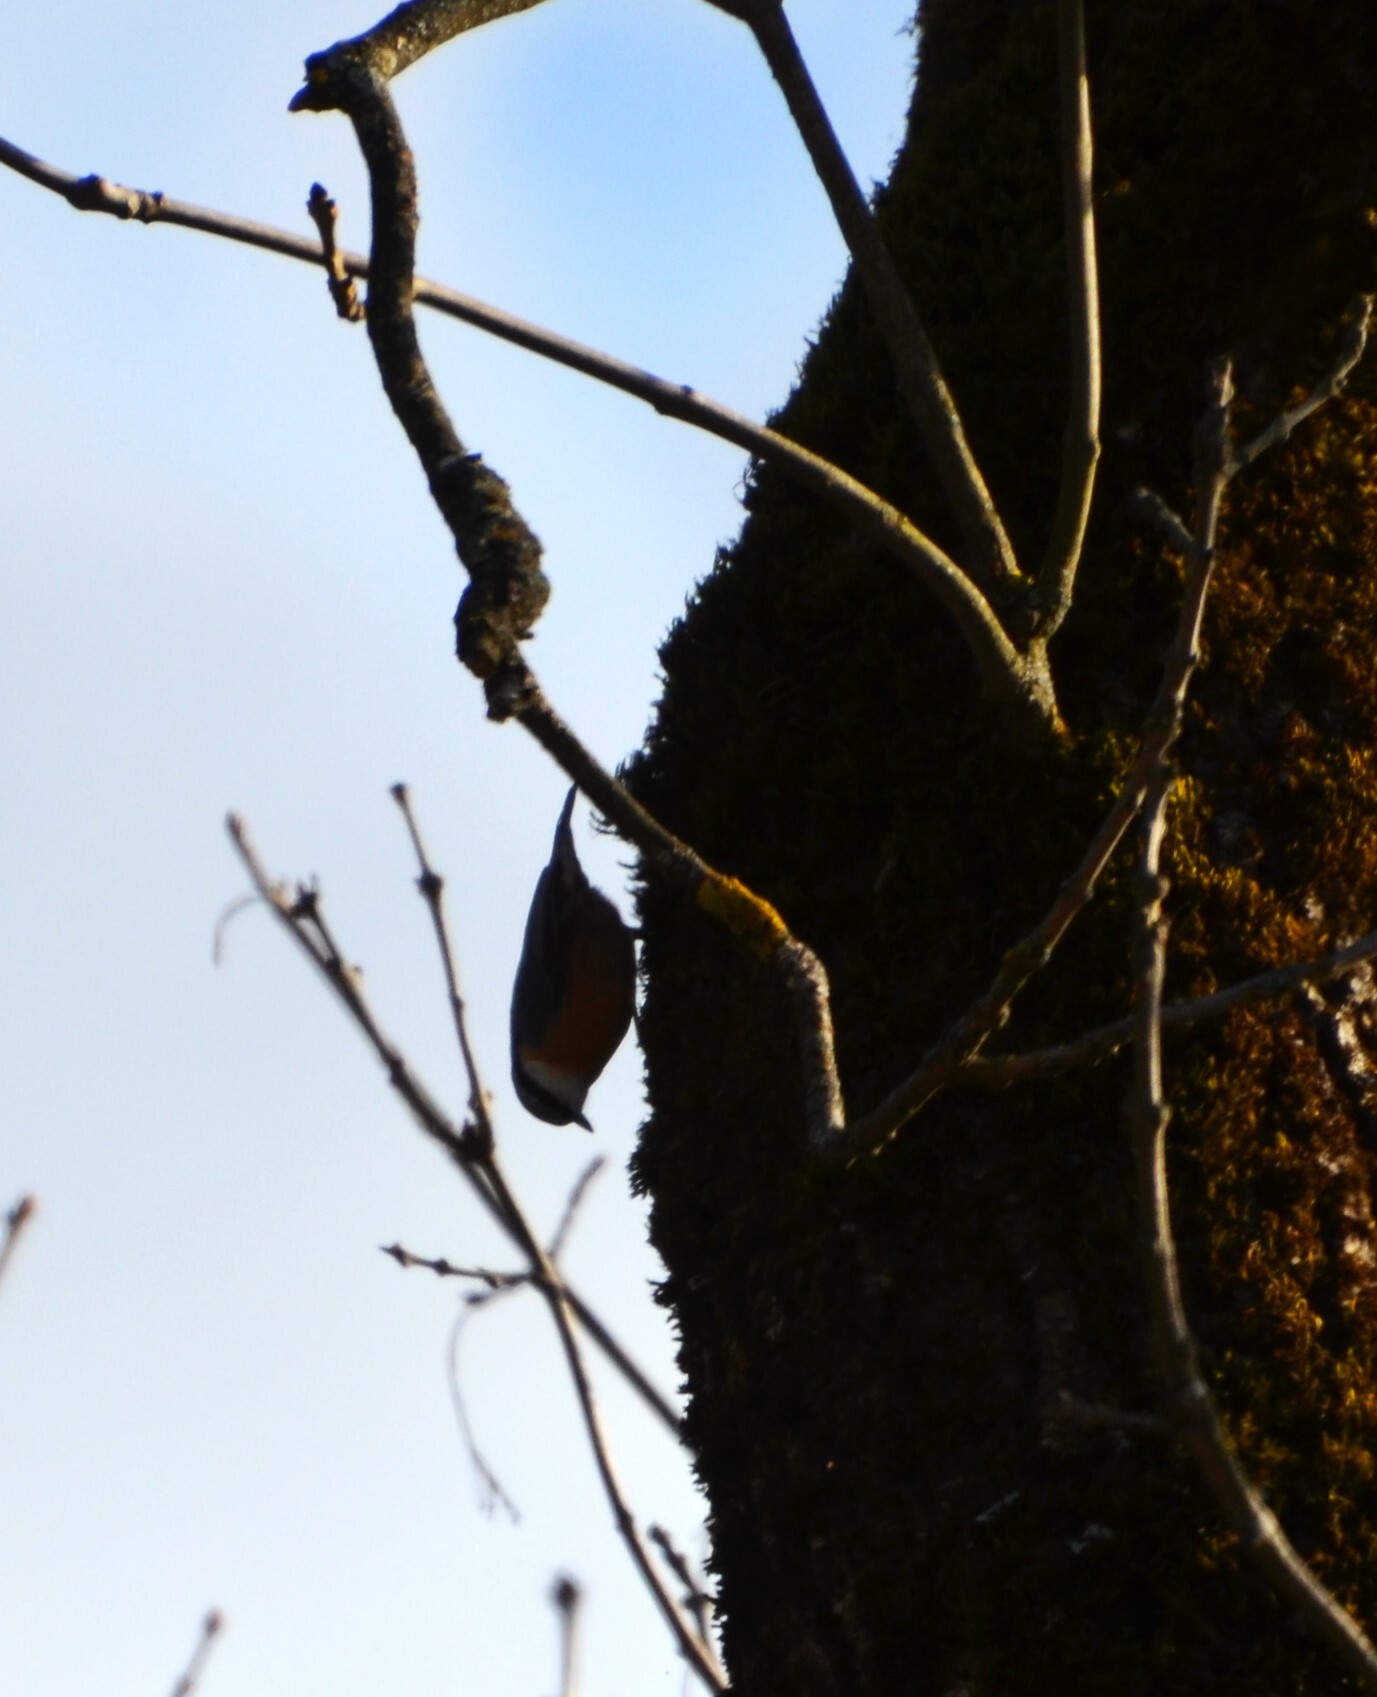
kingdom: Animalia
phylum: Chordata
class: Aves
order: Passeriformes
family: Sittidae
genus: Sitta
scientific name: Sitta europaea
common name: Eurasian nuthatch
